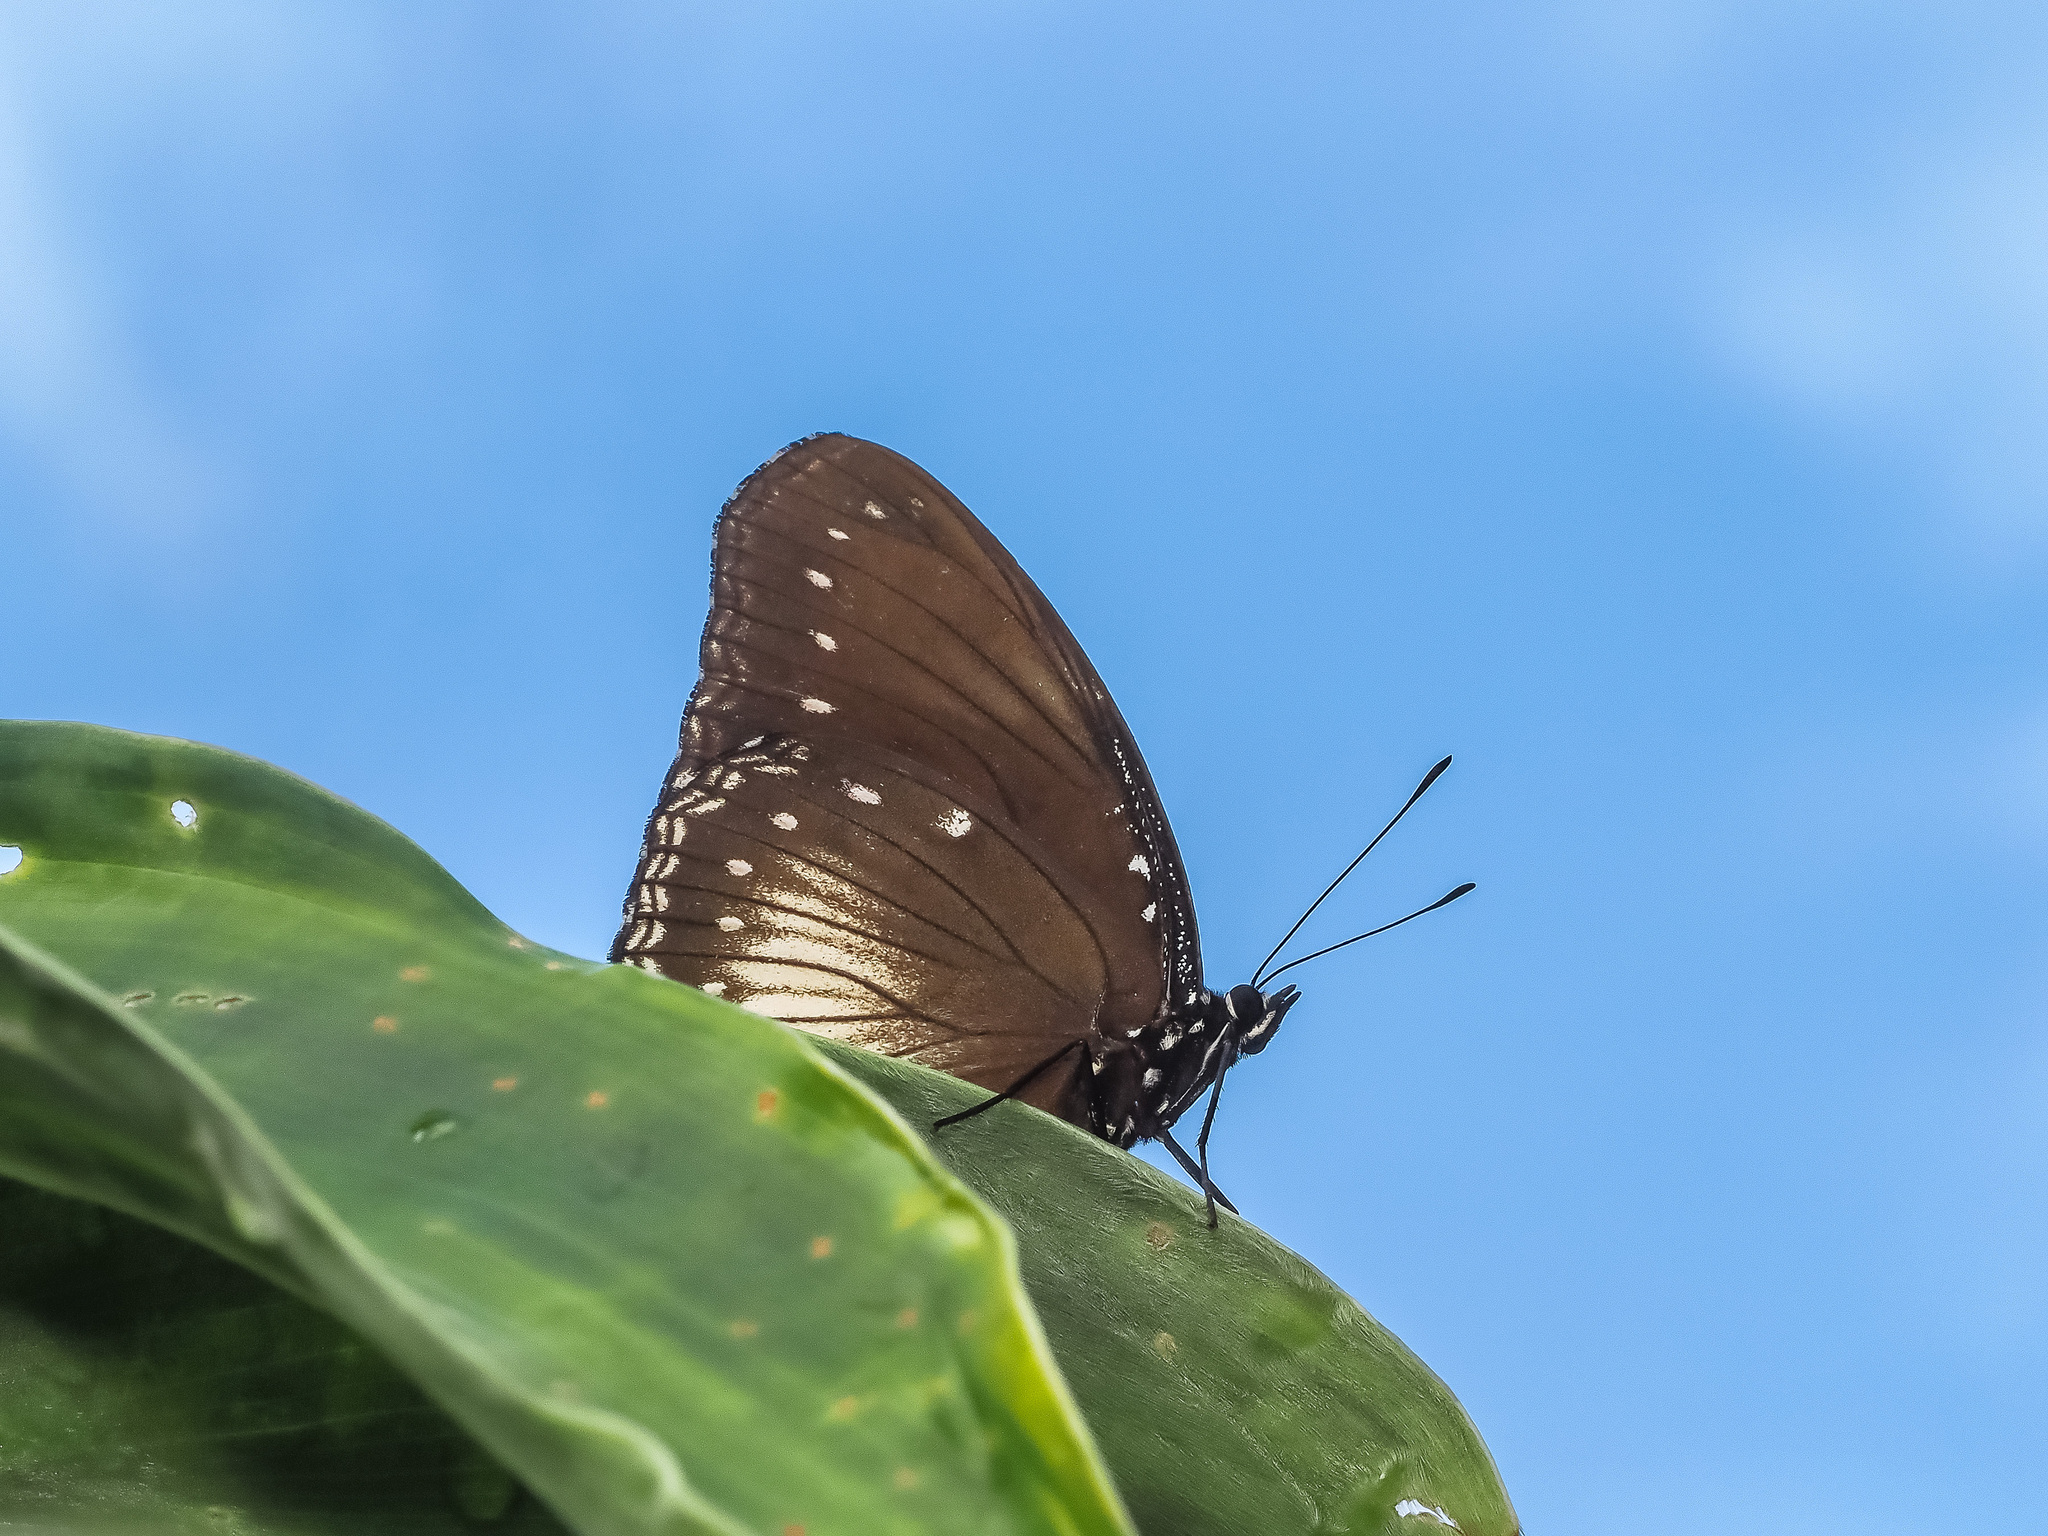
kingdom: Animalia
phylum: Arthropoda
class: Insecta
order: Lepidoptera
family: Nymphalidae
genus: Hypolimnas
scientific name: Hypolimnas anomala
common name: Malayan eggfly
